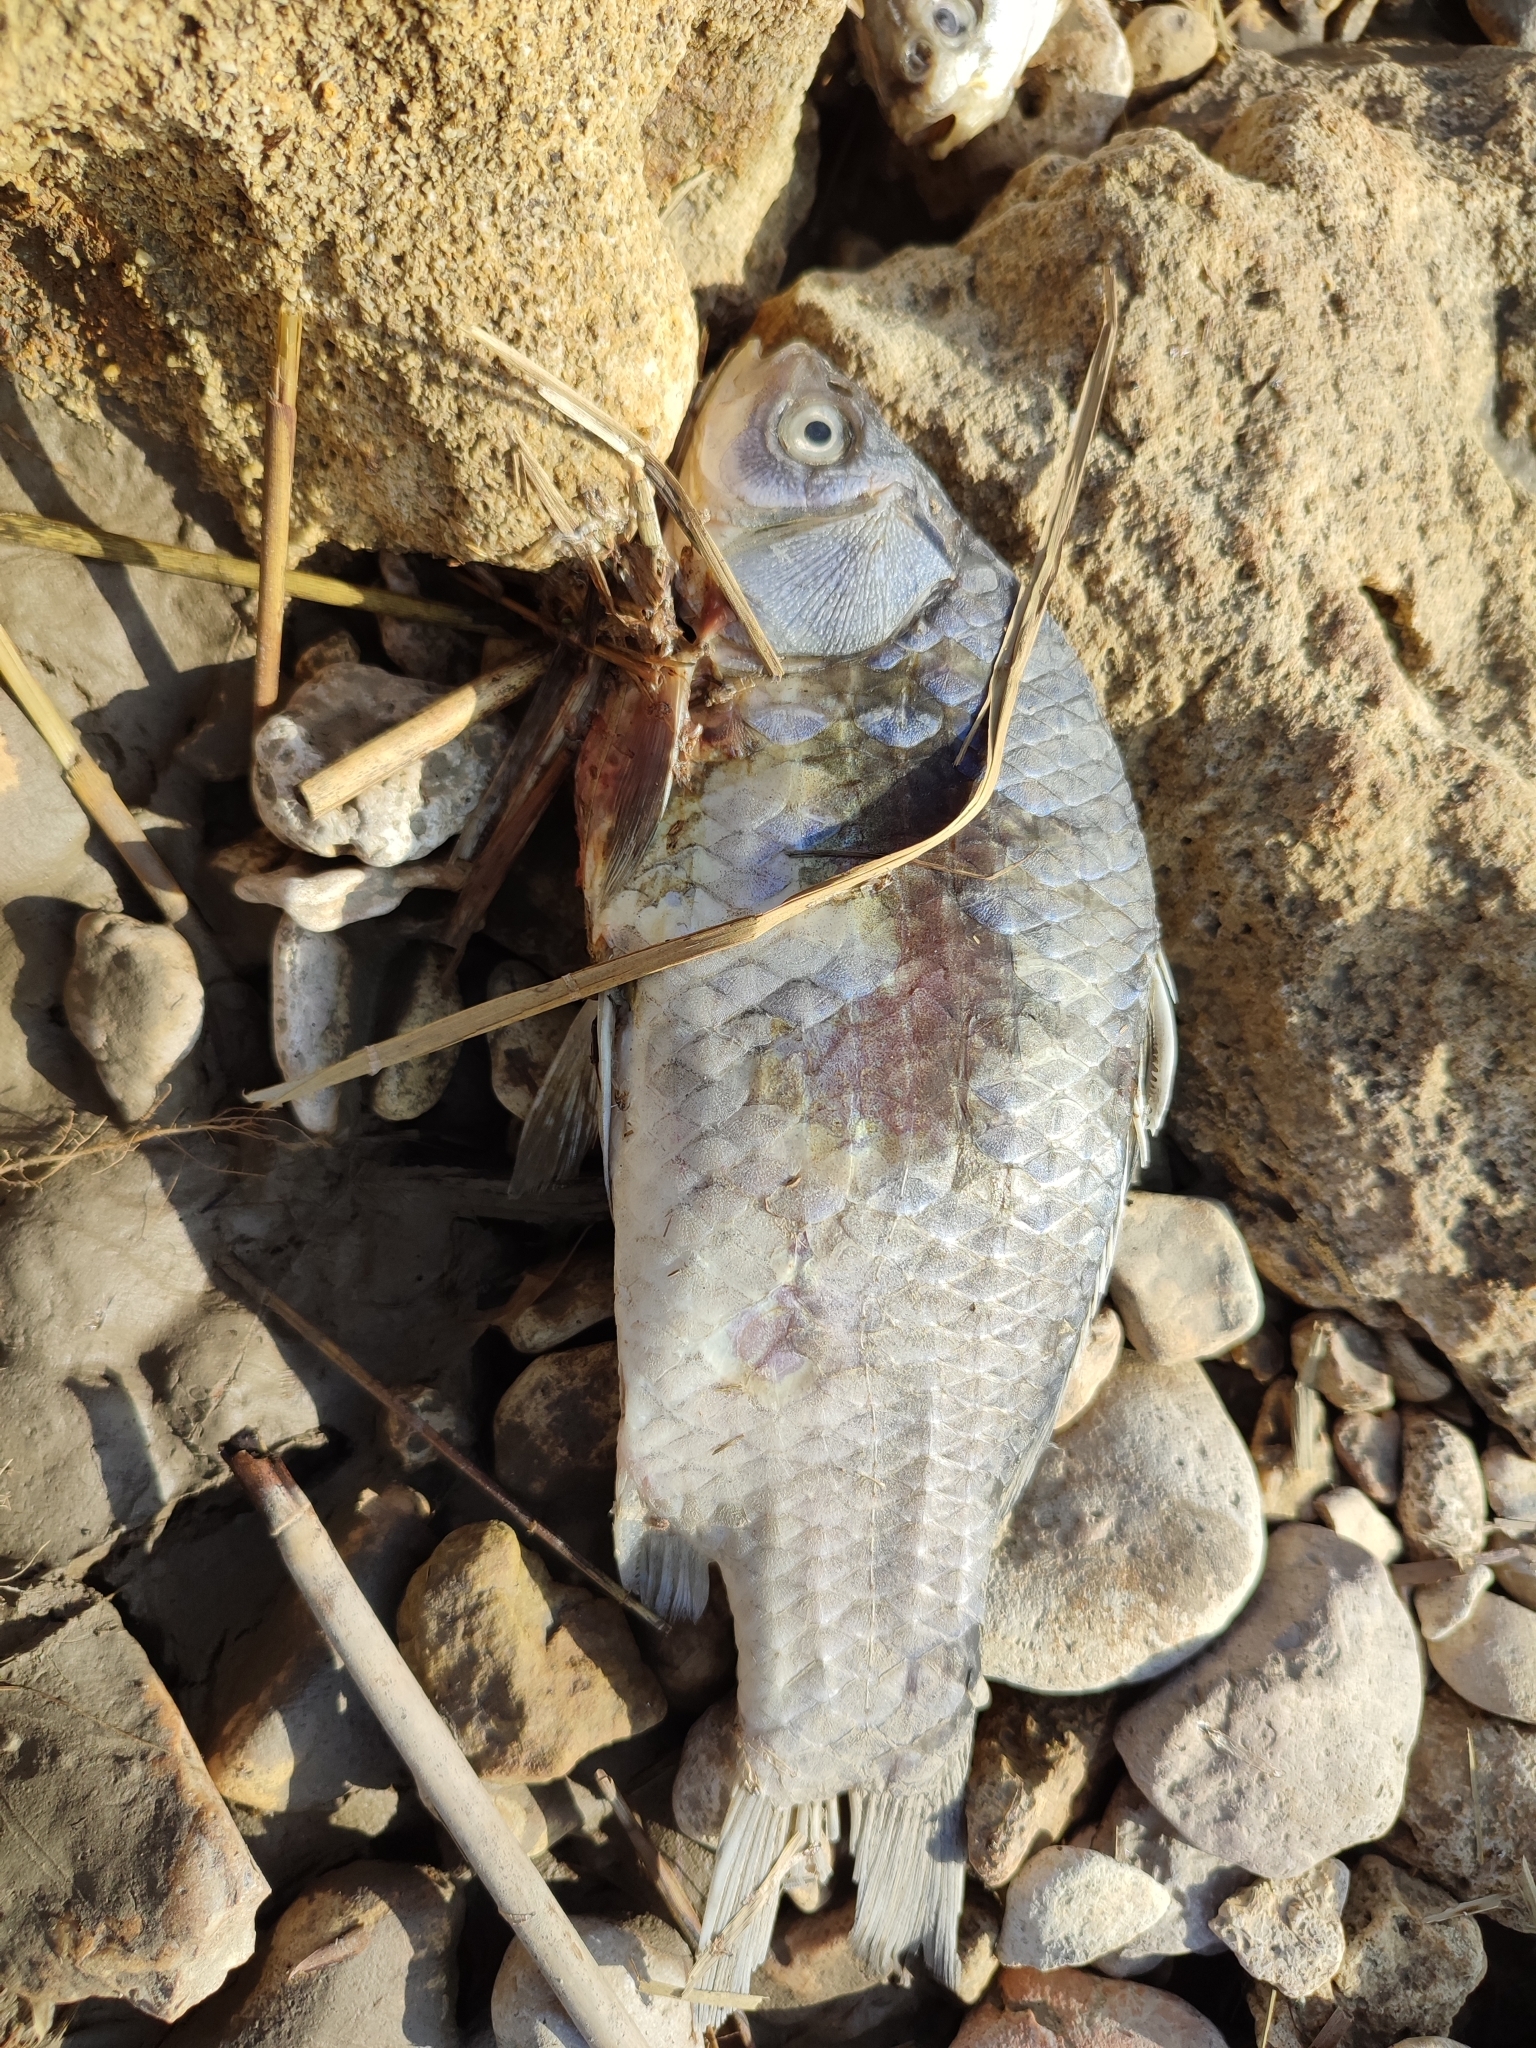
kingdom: Animalia
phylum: Chordata
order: Cypriniformes
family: Cyprinidae
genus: Carassius
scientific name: Carassius gibelio
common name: Prussian carp
